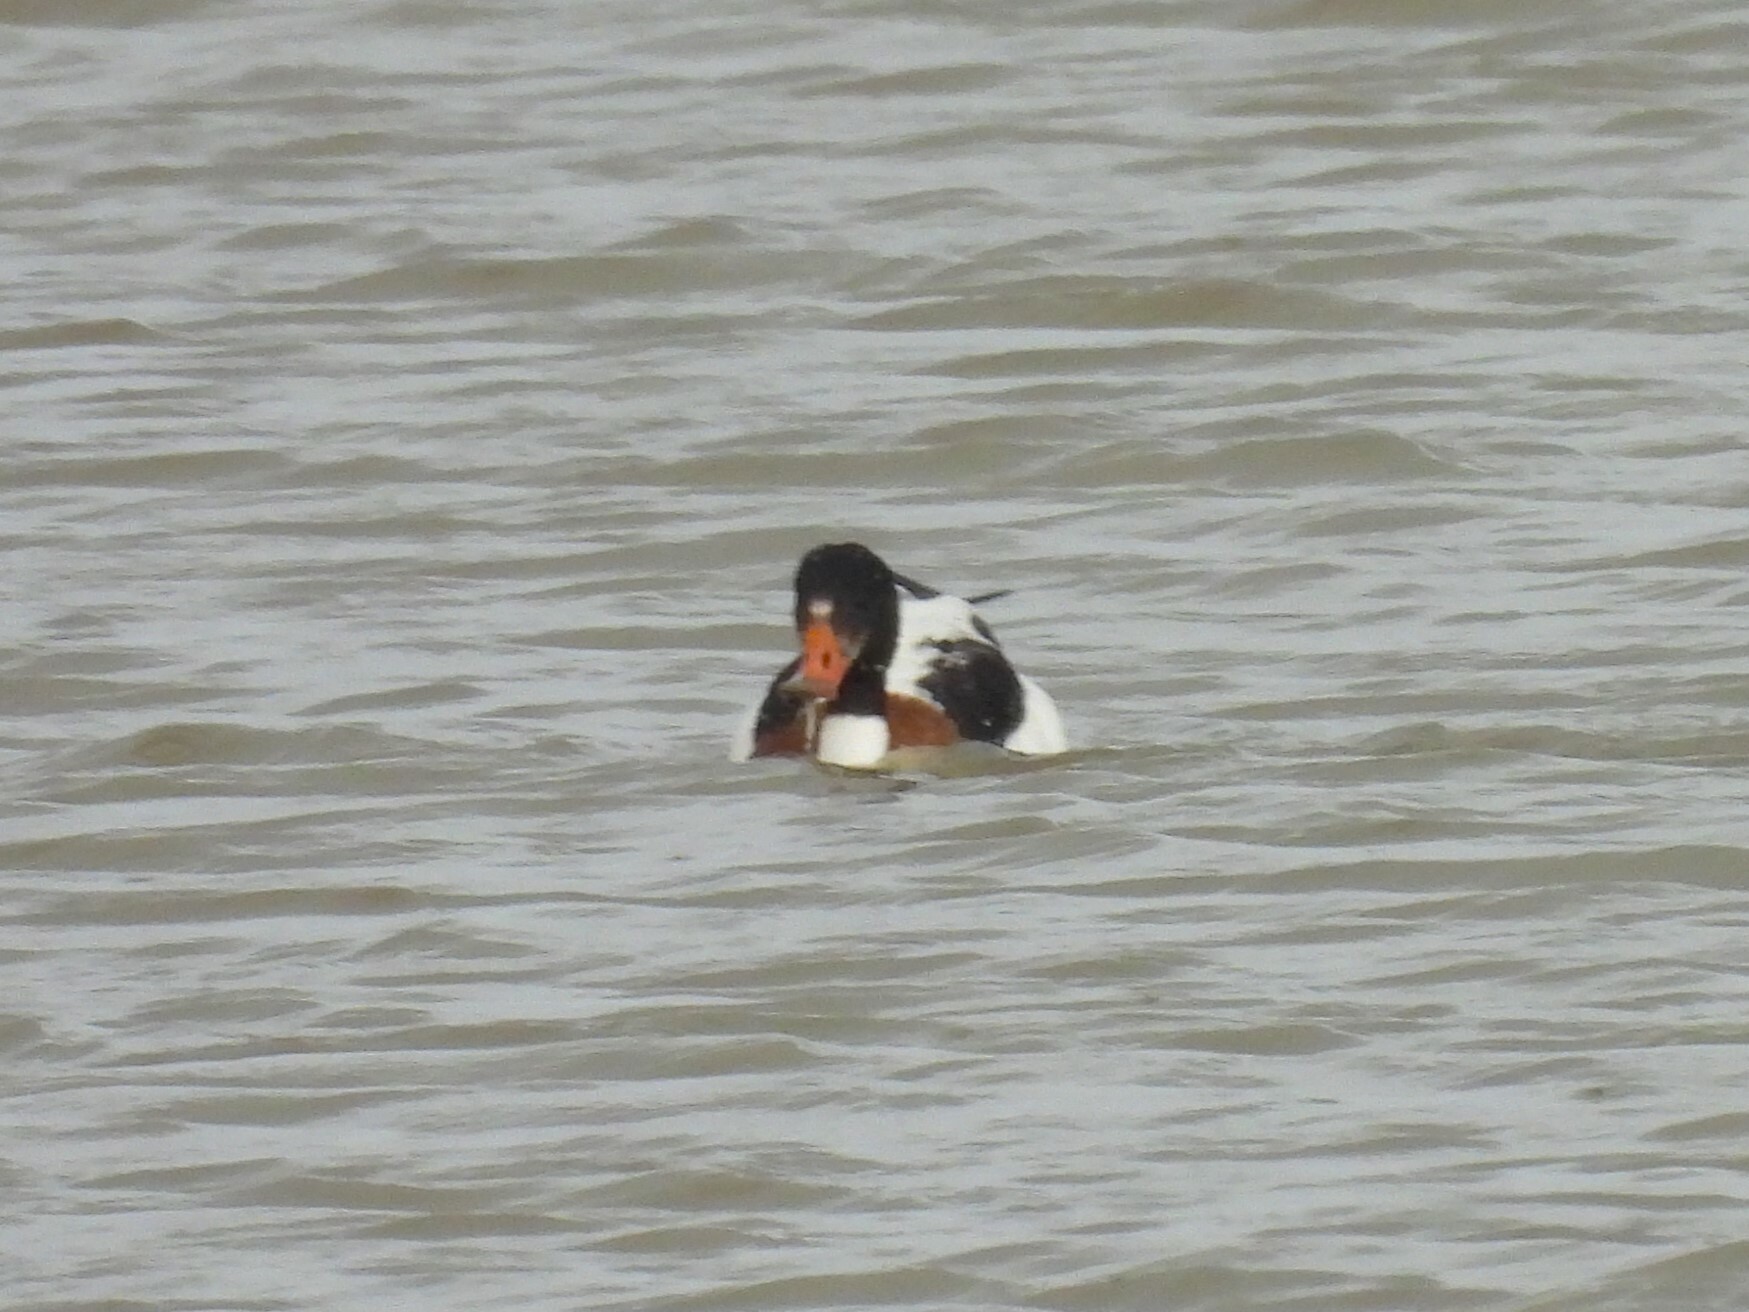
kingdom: Animalia
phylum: Chordata
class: Aves
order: Anseriformes
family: Anatidae
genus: Tadorna
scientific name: Tadorna tadorna
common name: Common shelduck
